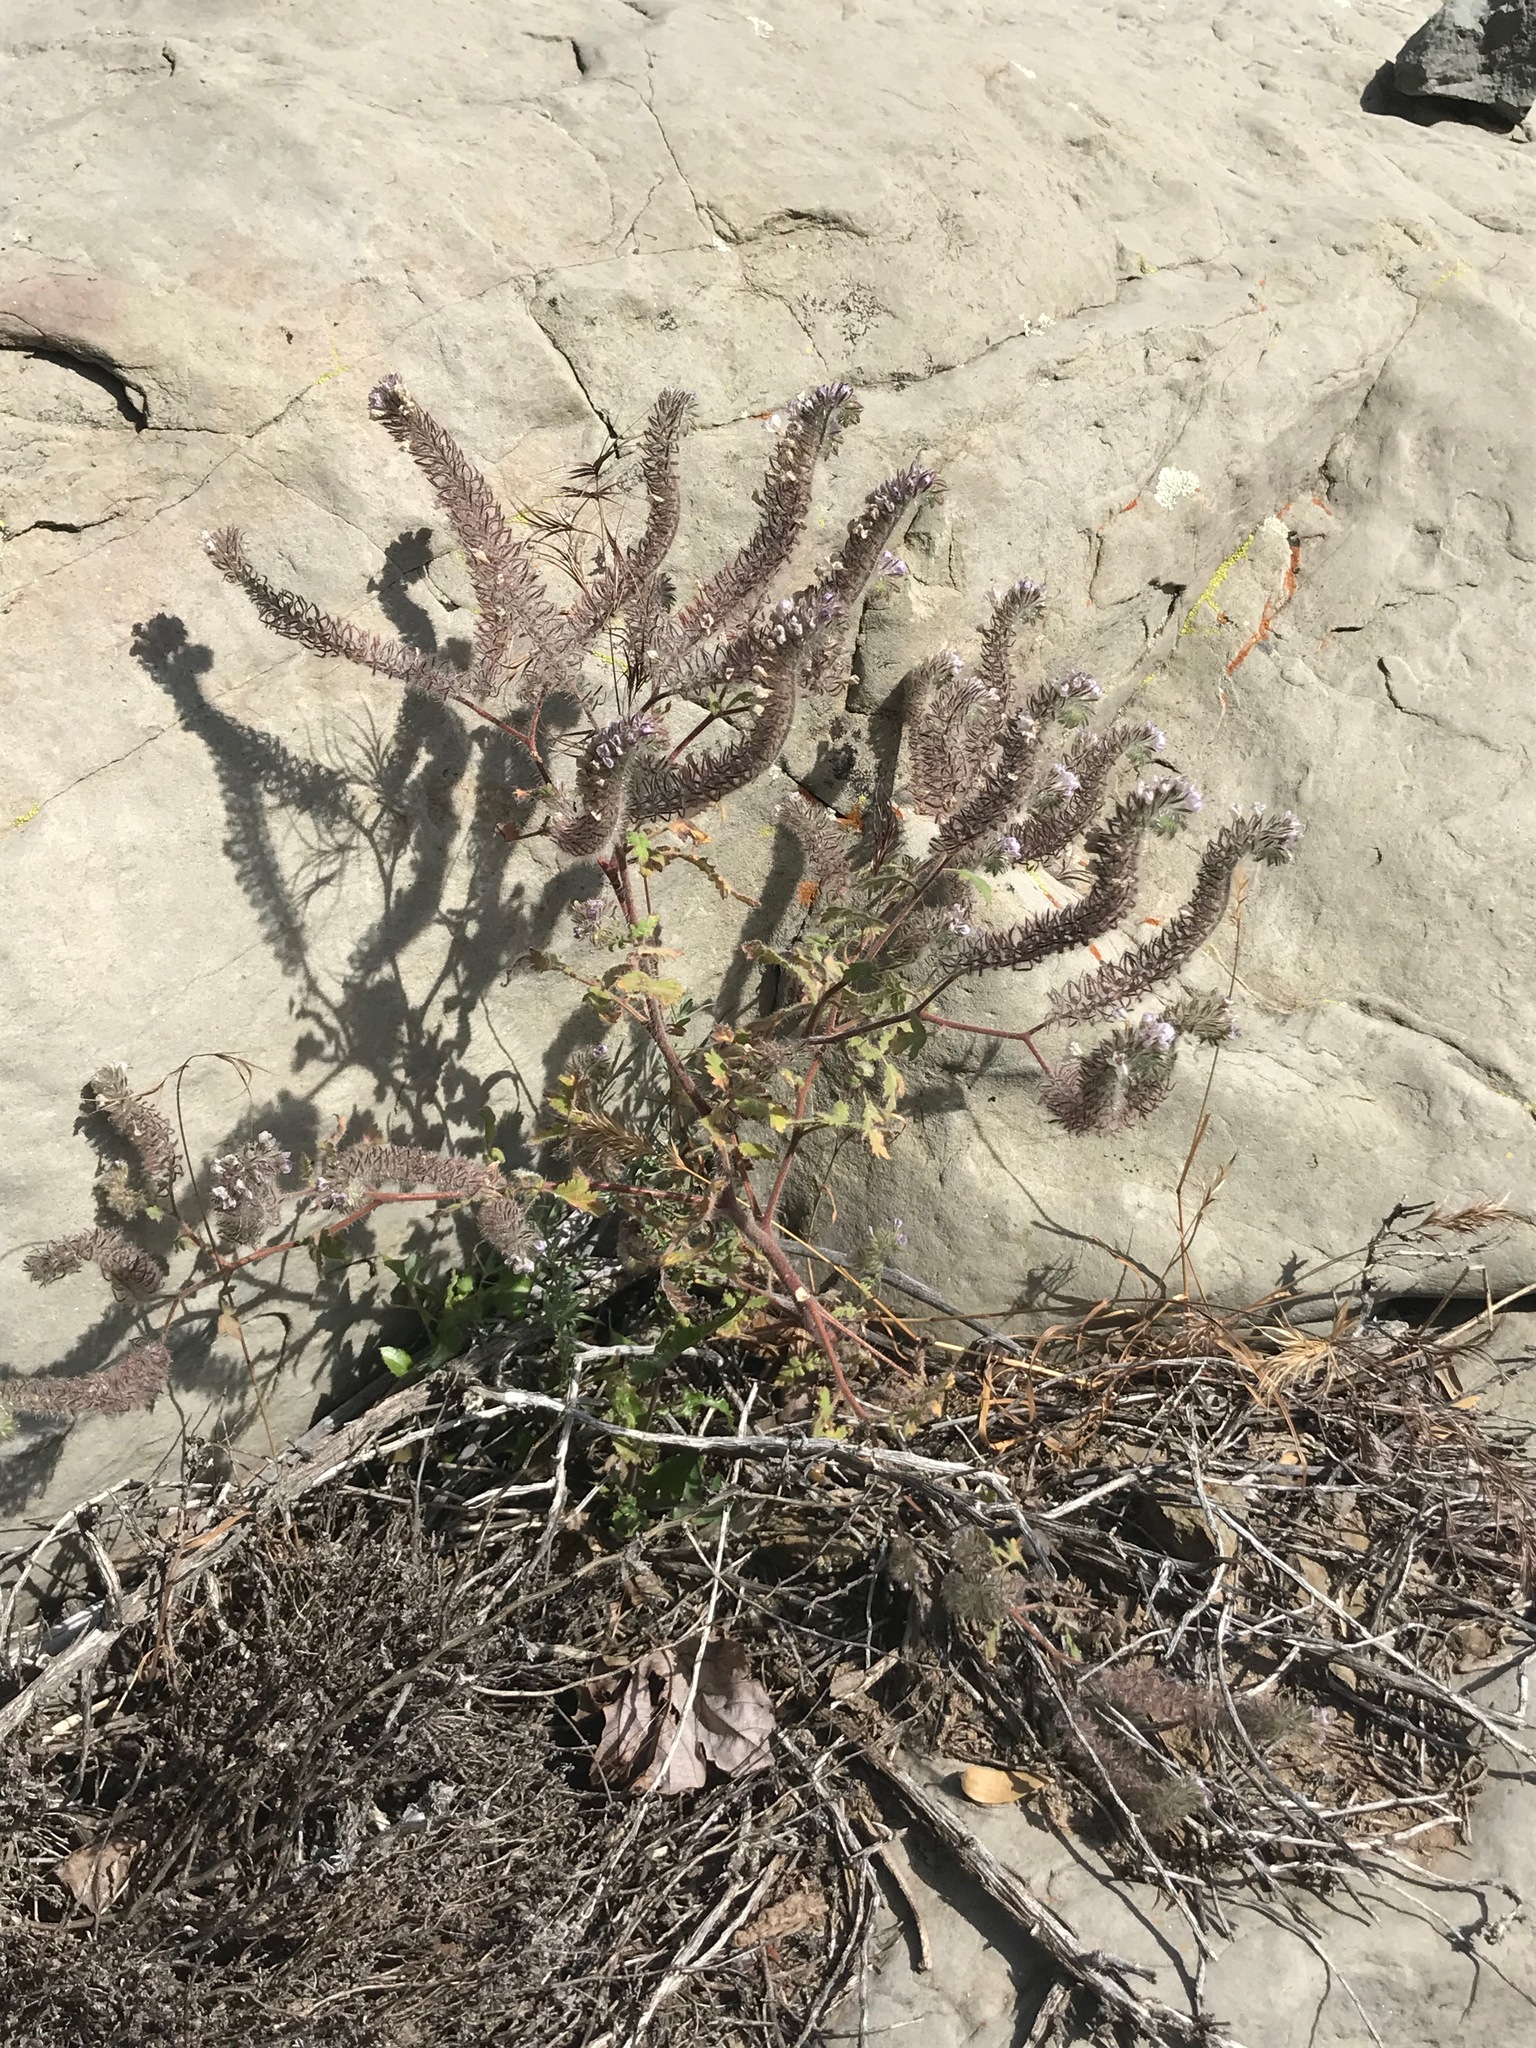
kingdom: Plantae
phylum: Tracheophyta
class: Magnoliopsida
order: Boraginales
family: Hydrophyllaceae
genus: Phacelia
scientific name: Phacelia cicutaria
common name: Caterpillar phacelia
